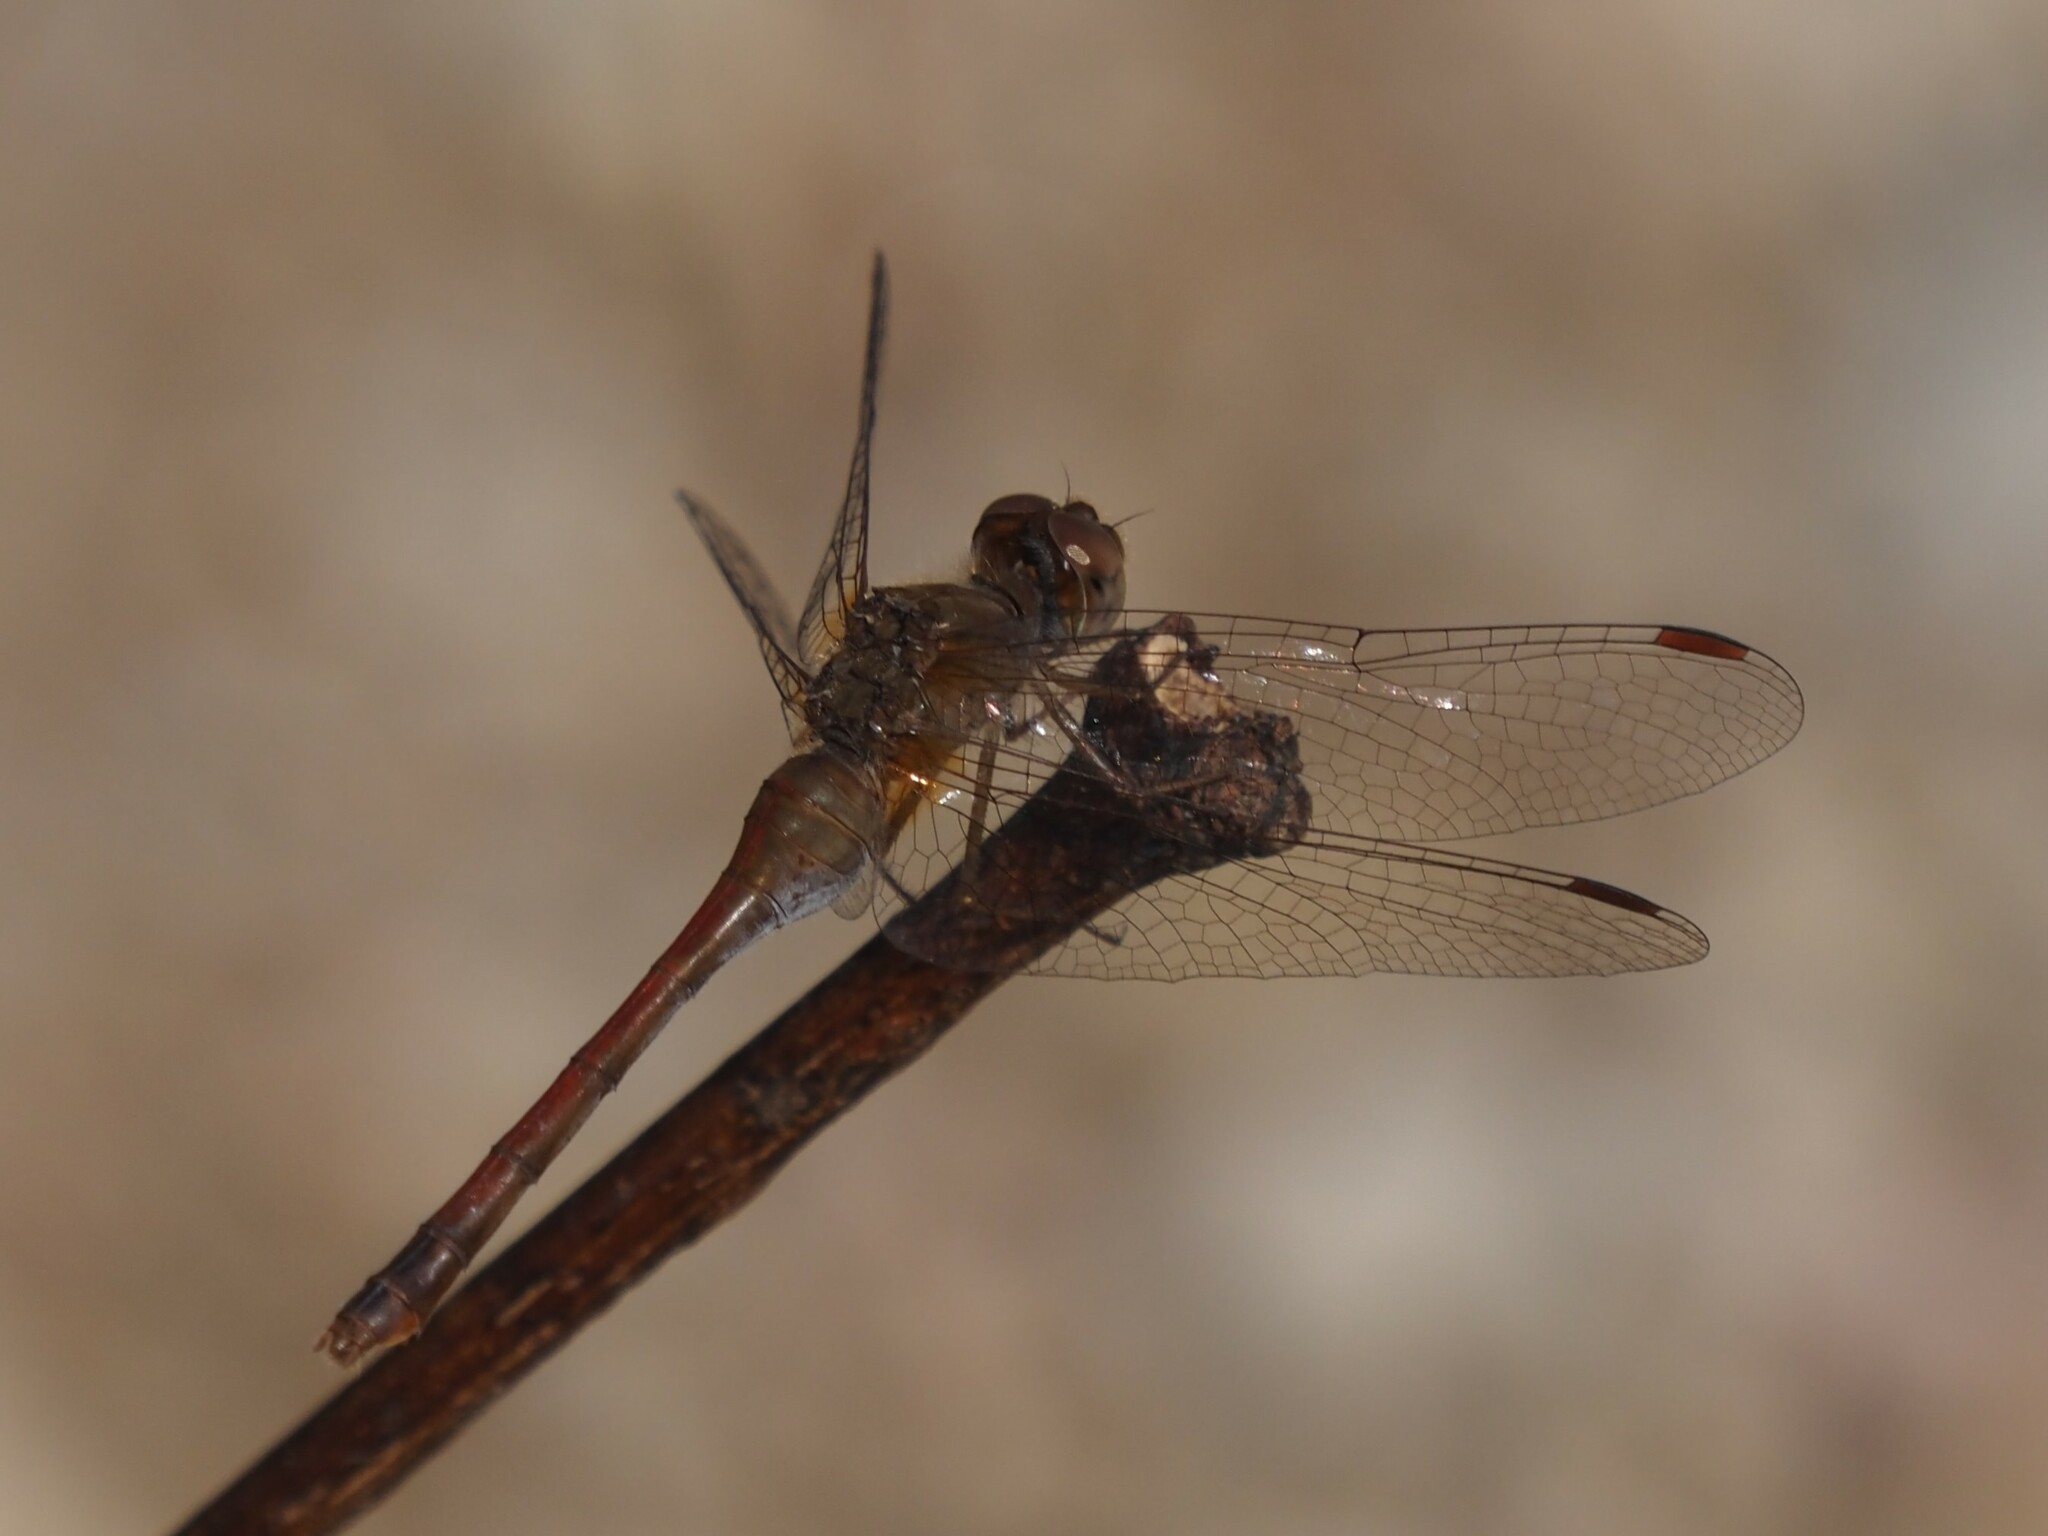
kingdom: Animalia
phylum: Arthropoda
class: Insecta
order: Odonata
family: Libellulidae
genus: Sympetrum
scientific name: Sympetrum vicinum
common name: Autumn meadowhawk
